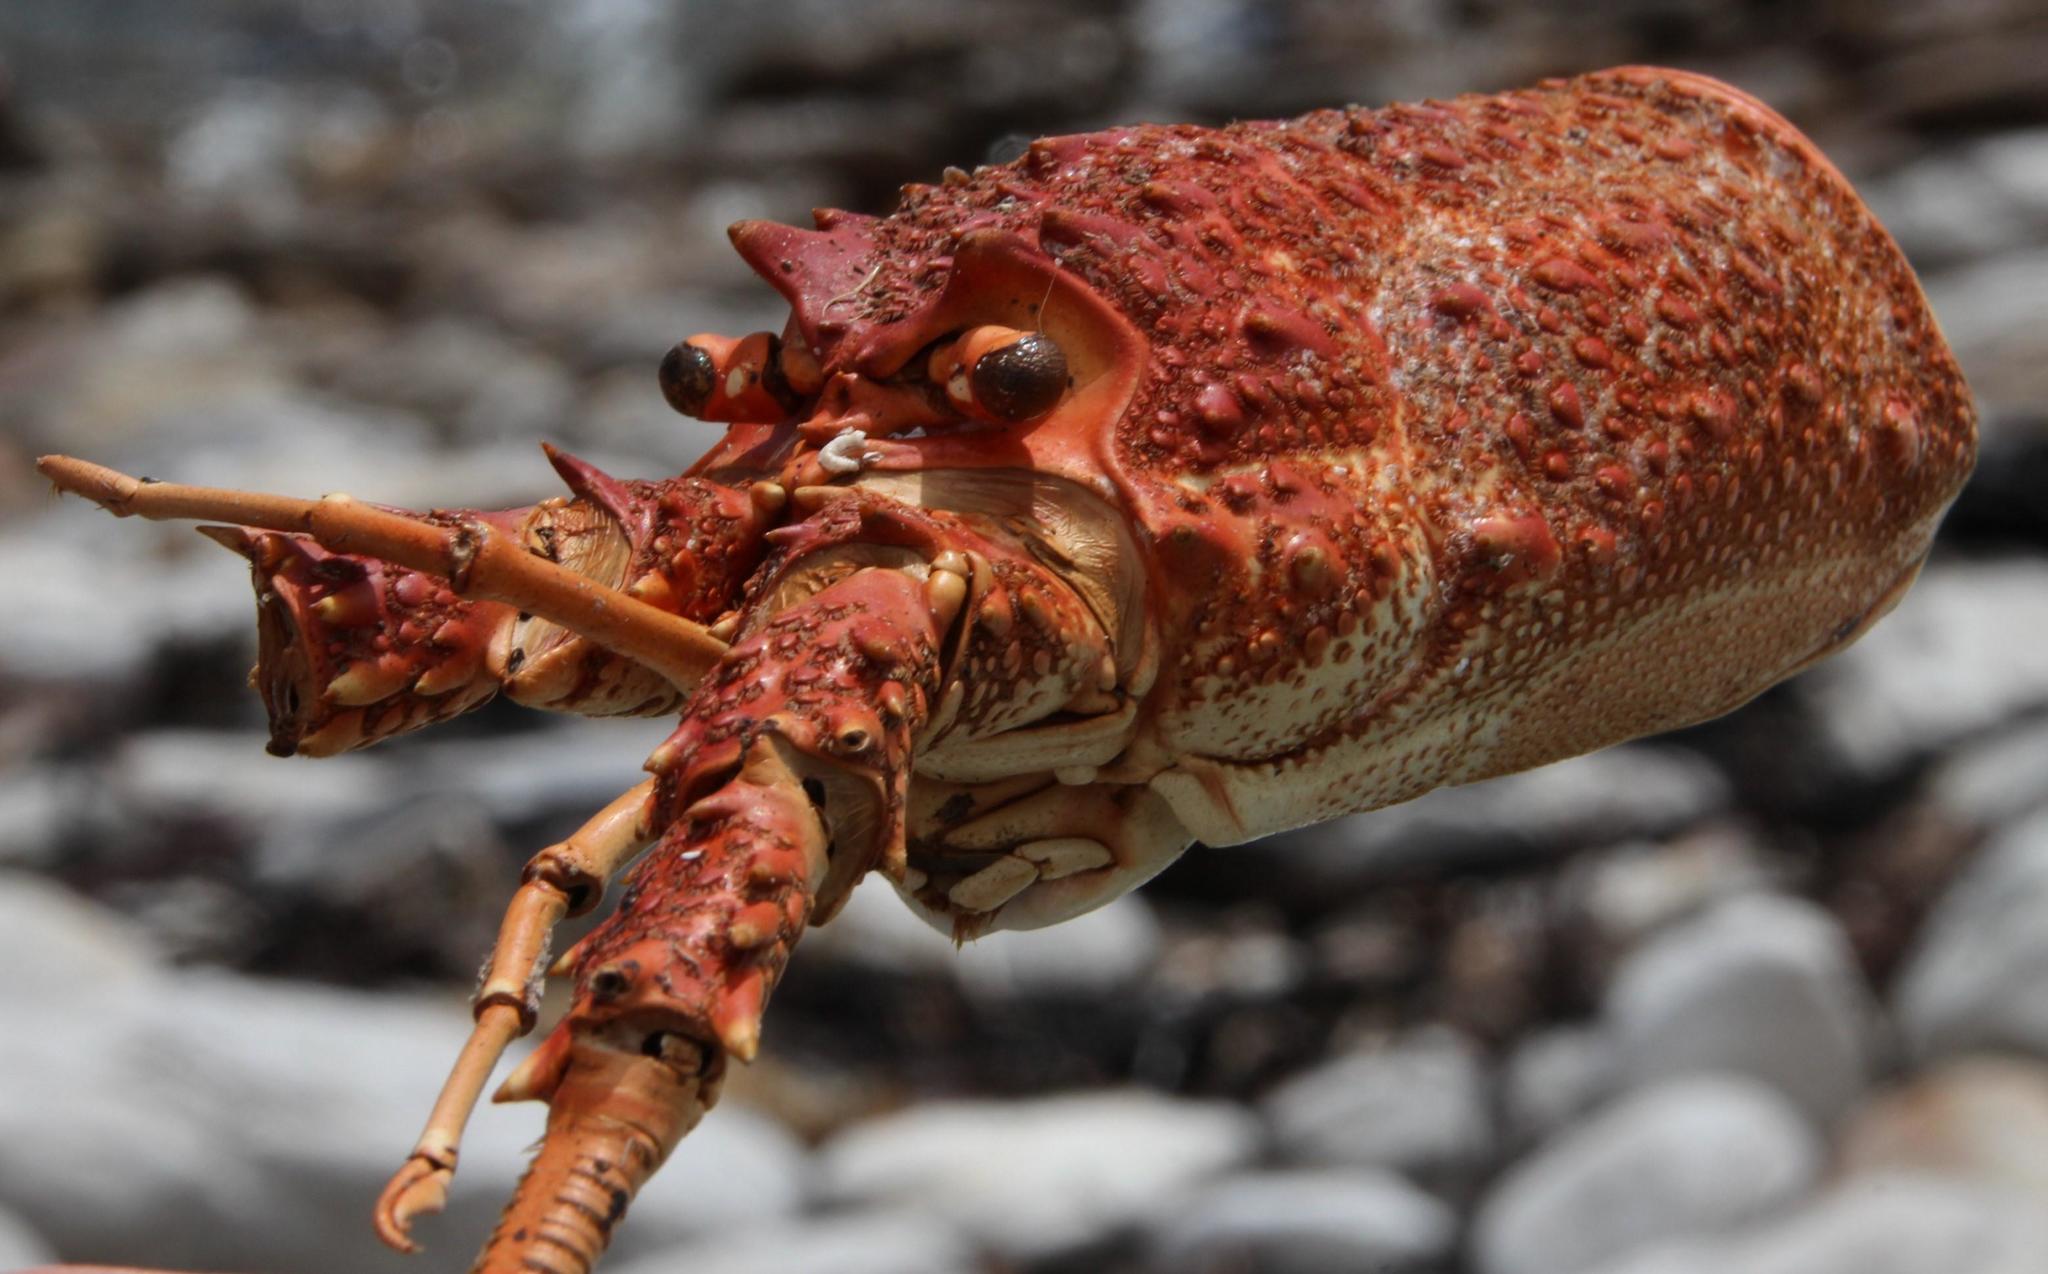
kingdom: Animalia
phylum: Arthropoda
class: Malacostraca
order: Decapoda
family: Palinuridae
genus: Jasus
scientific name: Jasus lalandii
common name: Cape rock lobster
